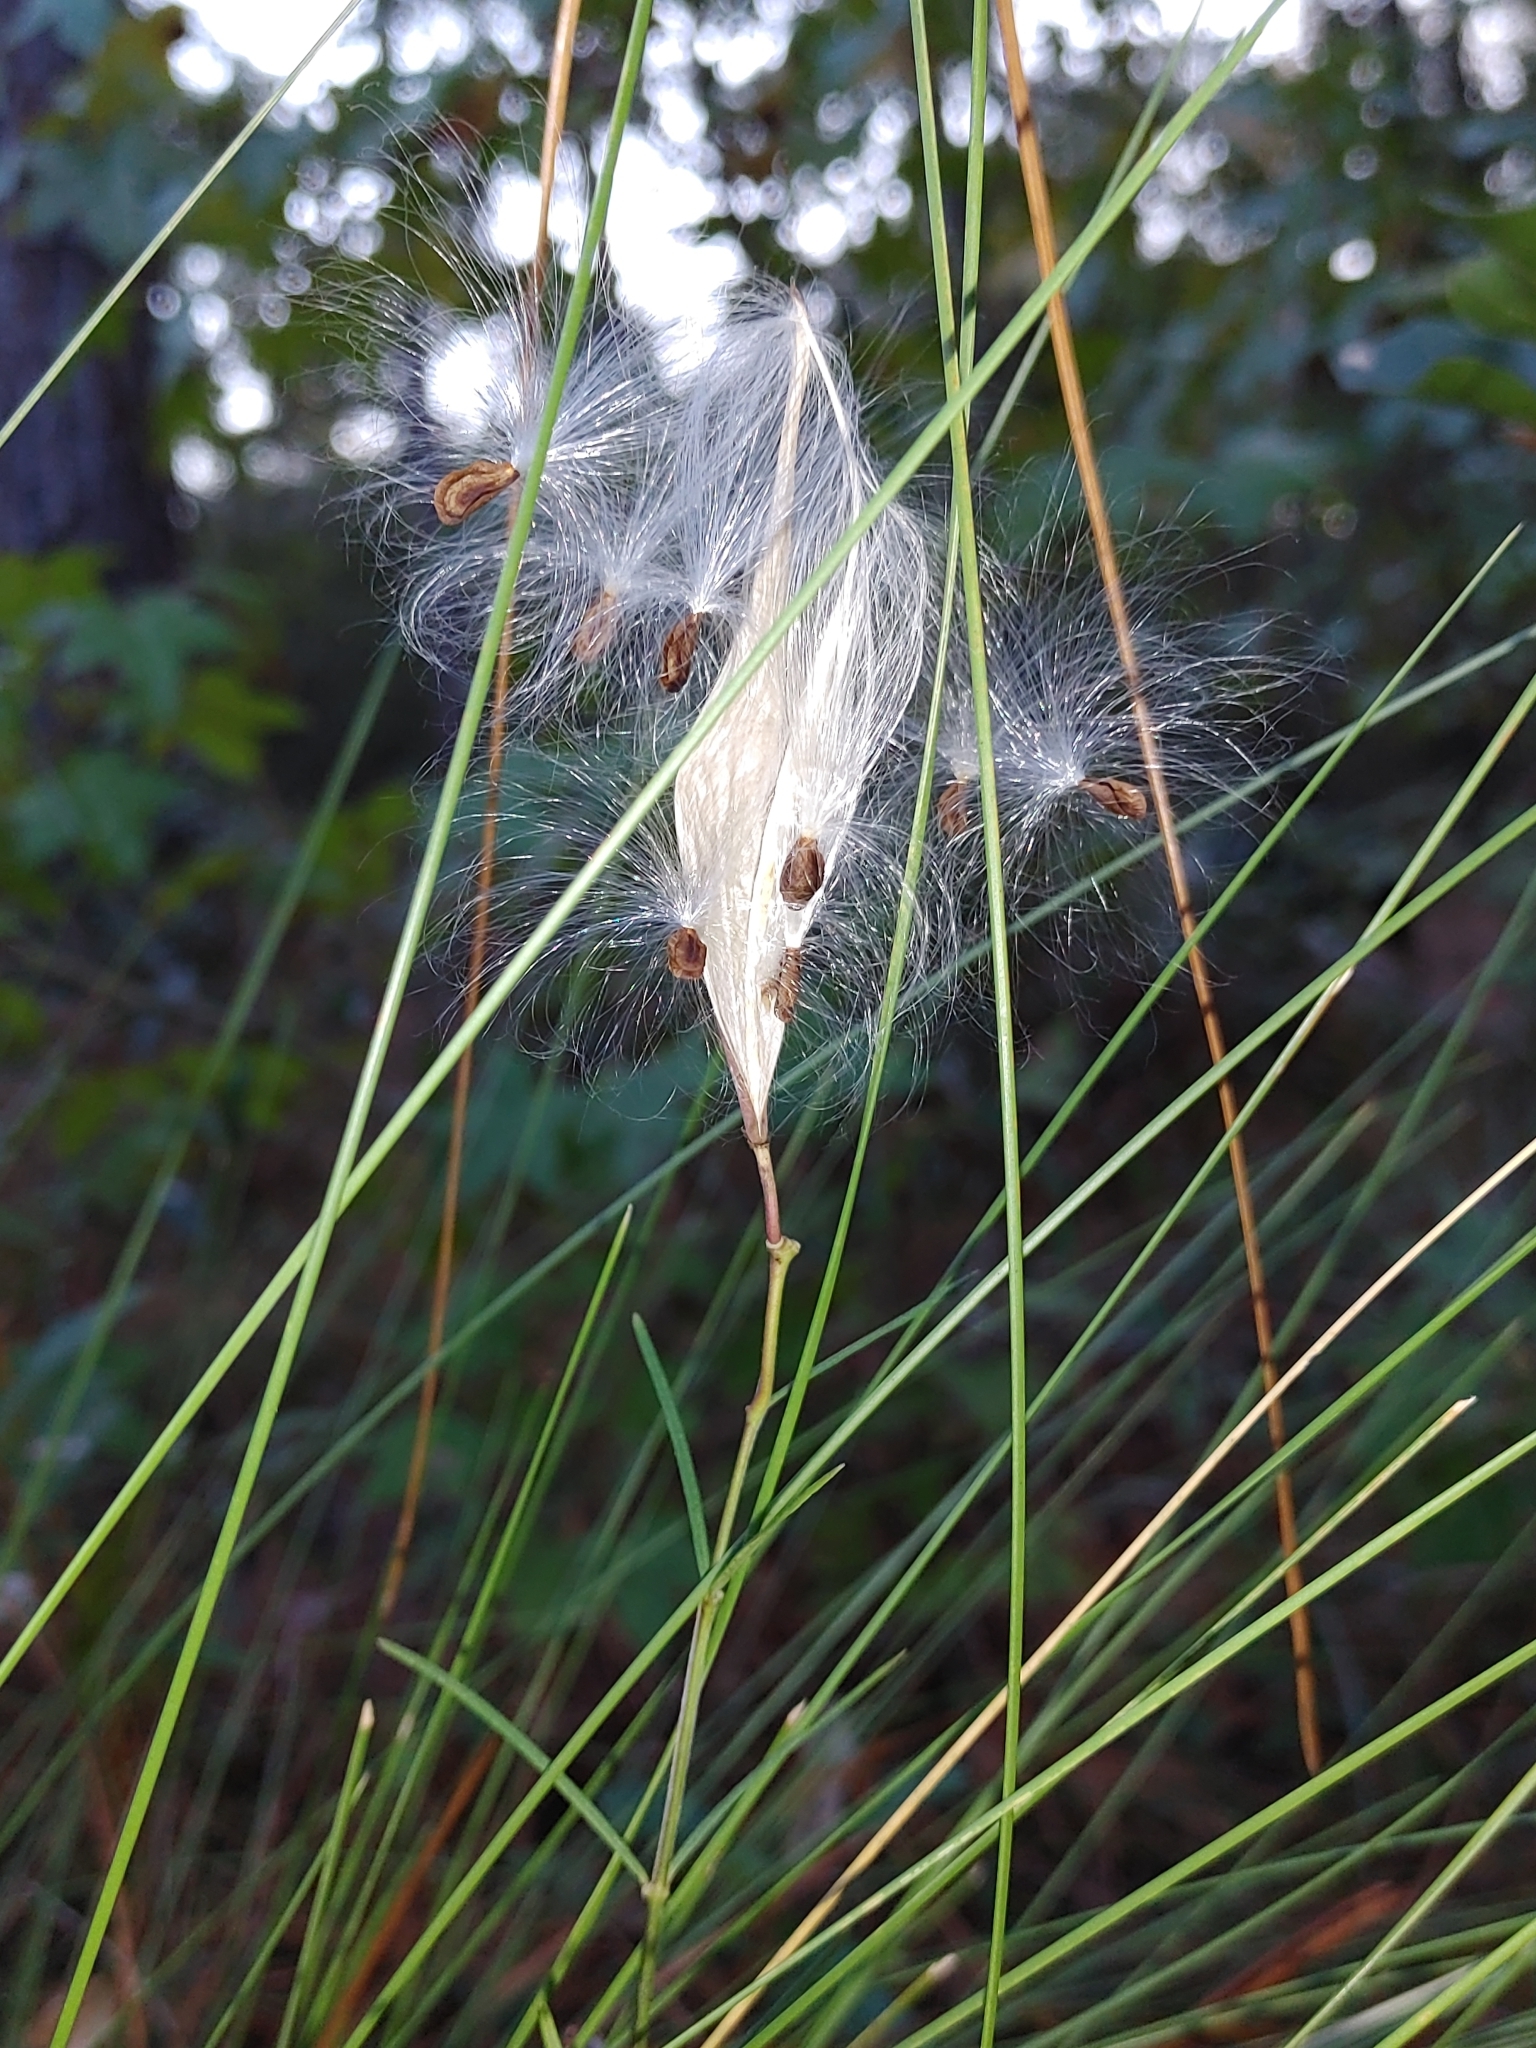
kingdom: Plantae
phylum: Tracheophyta
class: Magnoliopsida
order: Gentianales
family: Apocynaceae
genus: Asclepias
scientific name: Asclepias verticillata
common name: Eastern whorled milkweed
